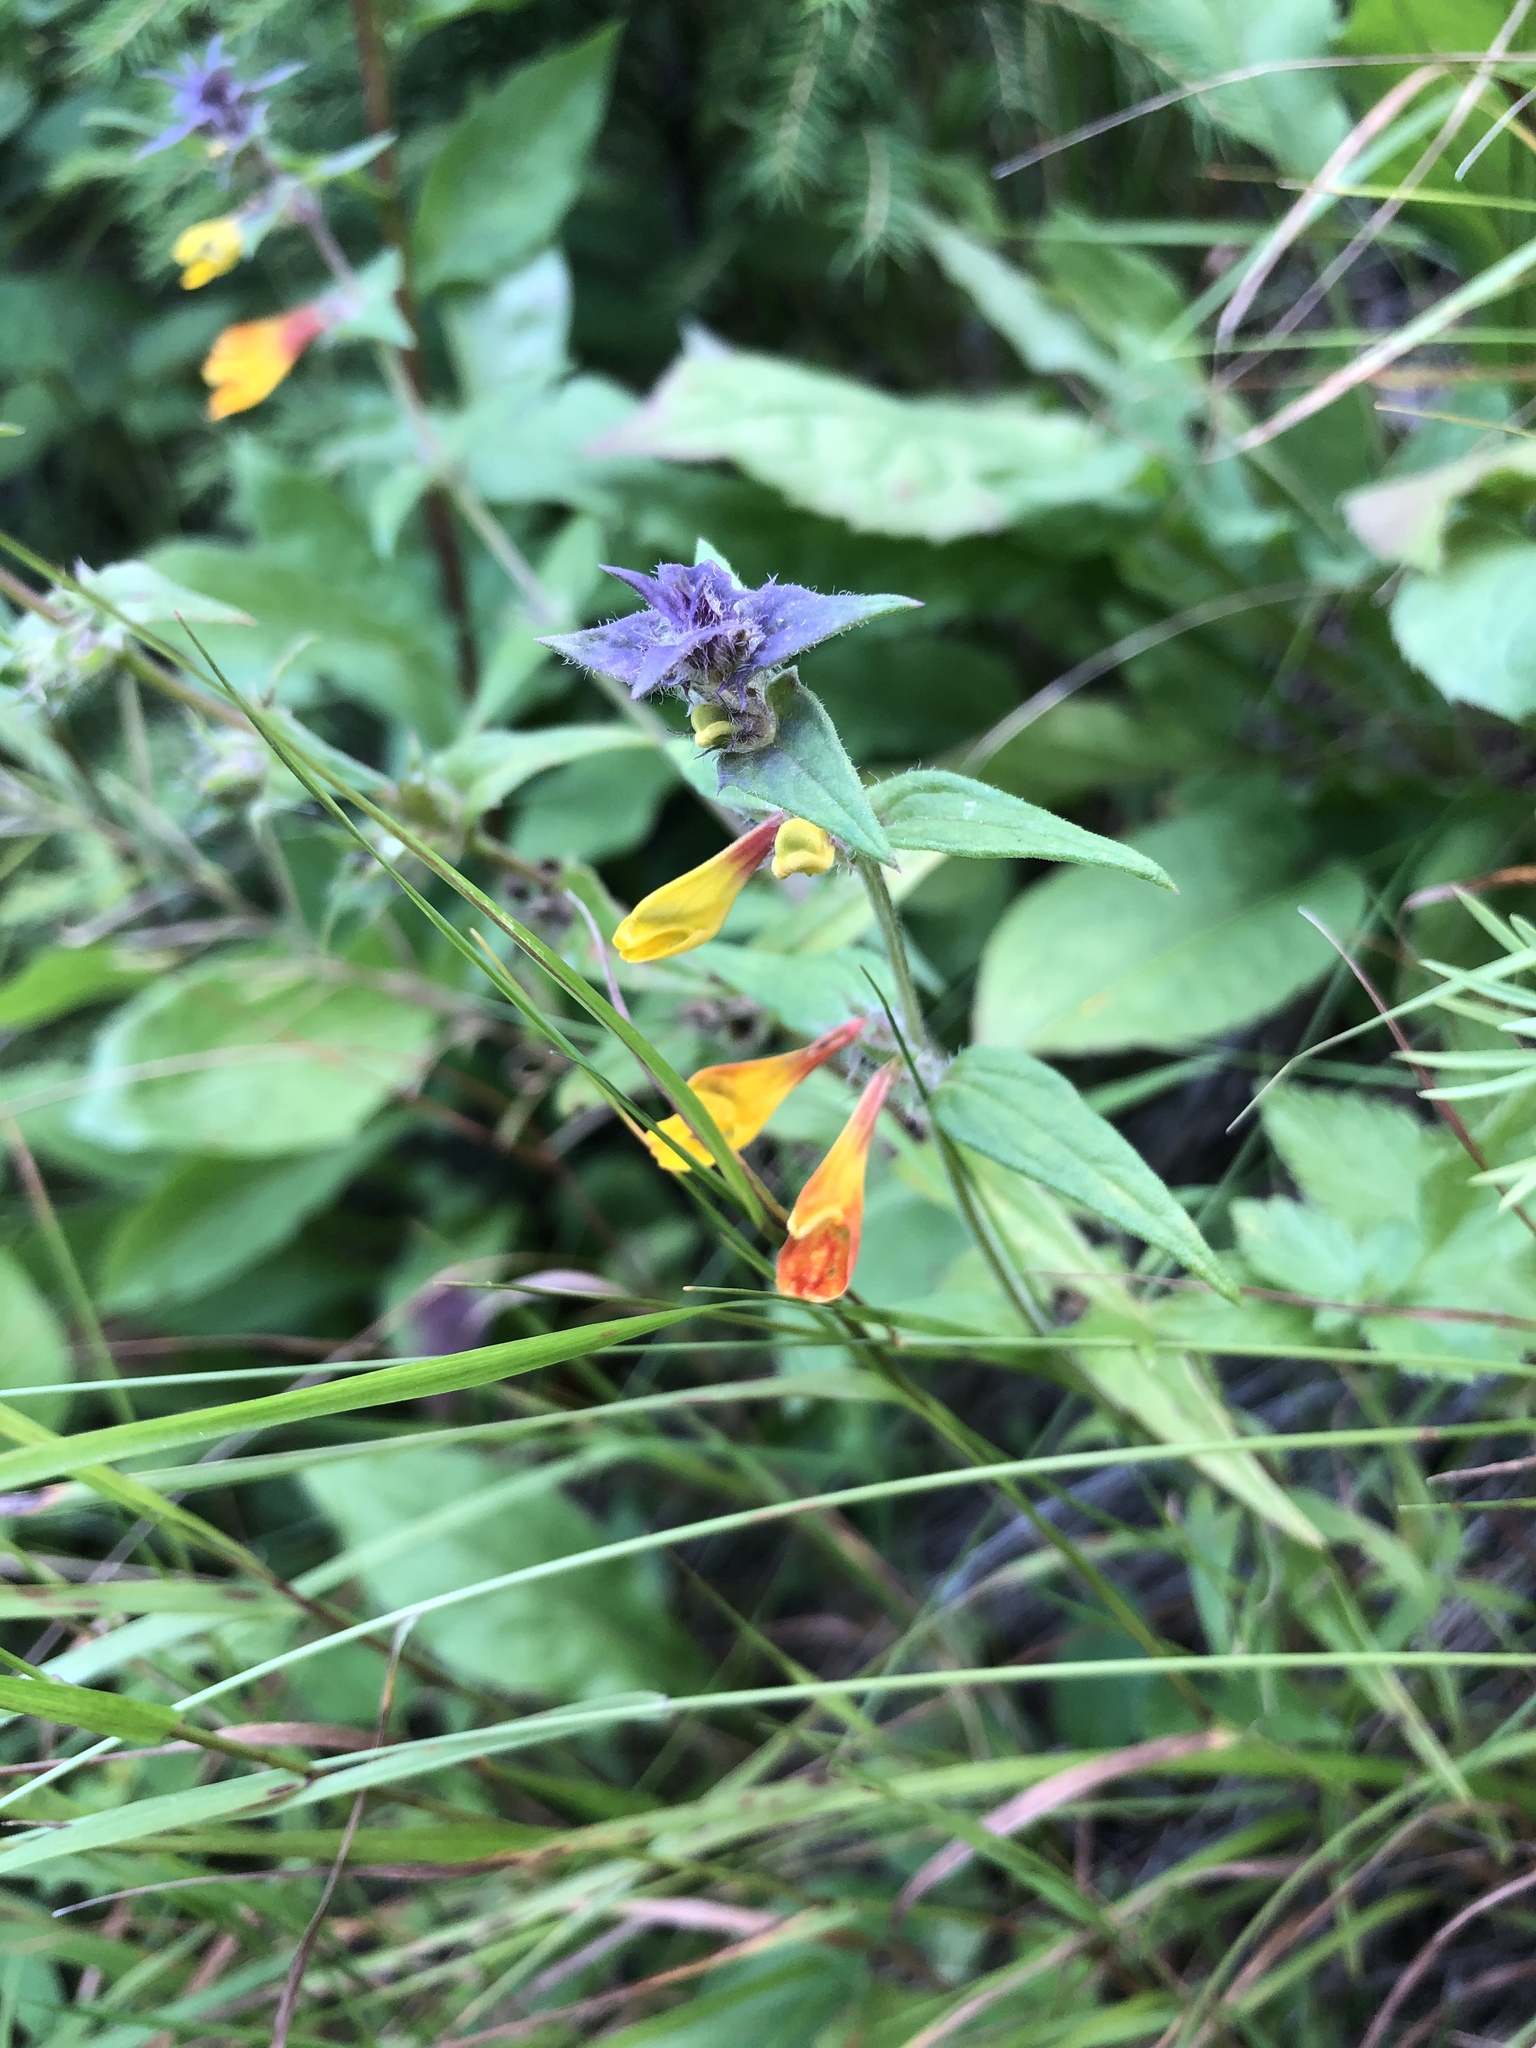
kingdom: Plantae
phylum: Tracheophyta
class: Magnoliopsida
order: Lamiales
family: Orobanchaceae
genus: Melampyrum
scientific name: Melampyrum nemorosum
